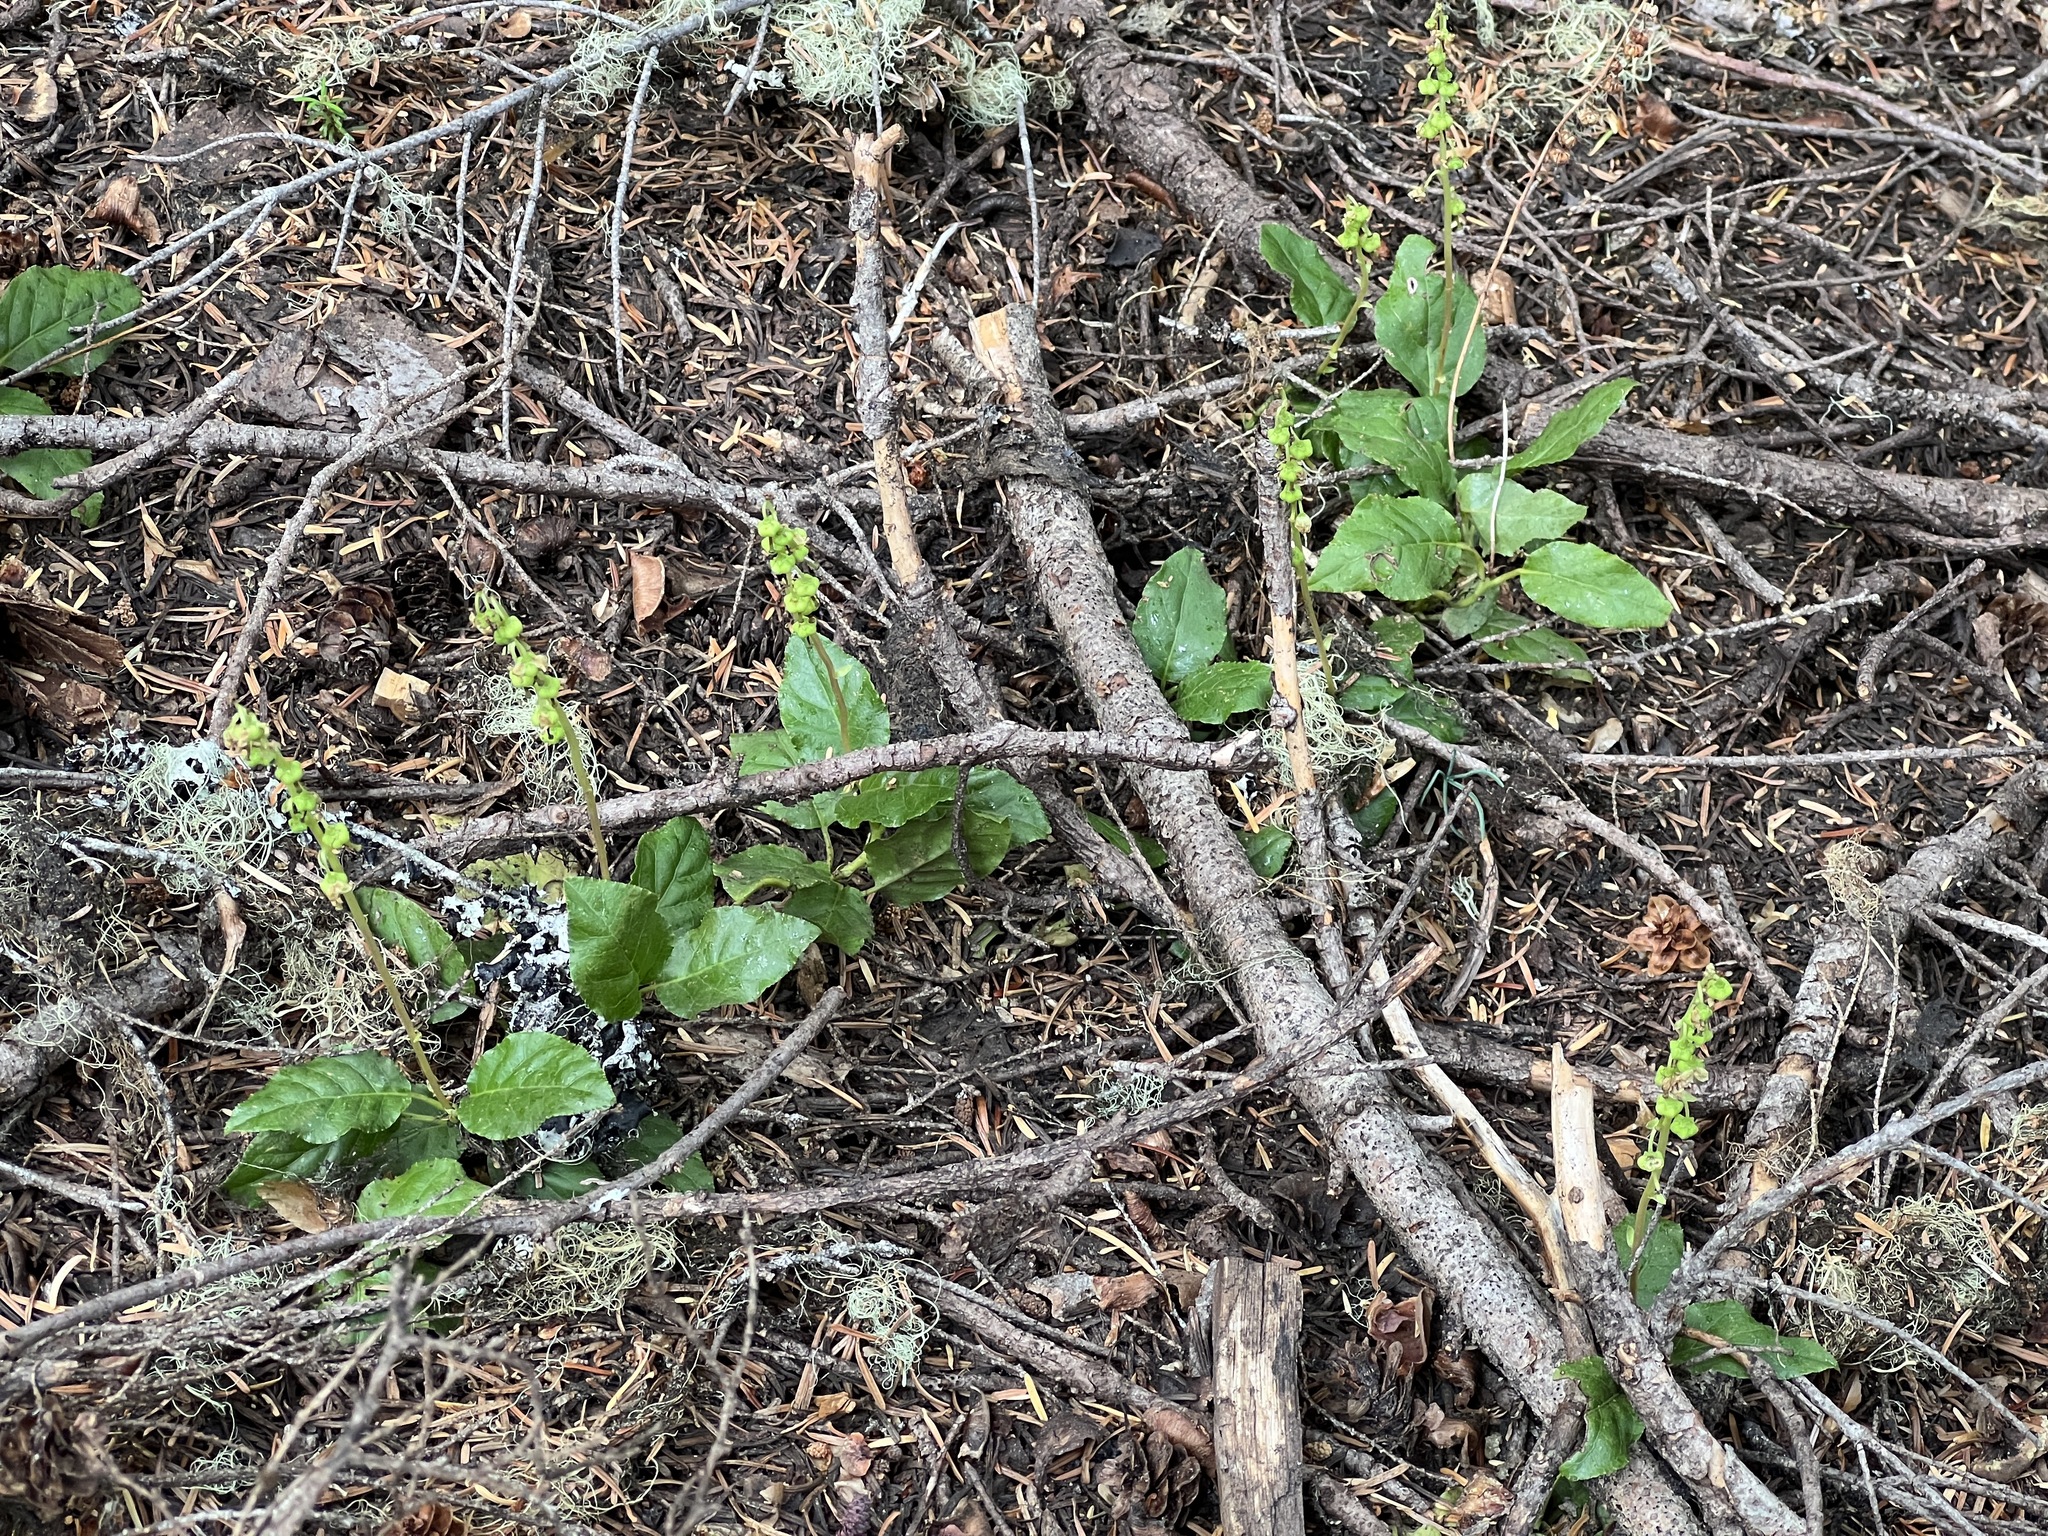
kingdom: Plantae
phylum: Tracheophyta
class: Magnoliopsida
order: Ericales
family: Ericaceae
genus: Orthilia
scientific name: Orthilia secunda
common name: One-sided orthilia
